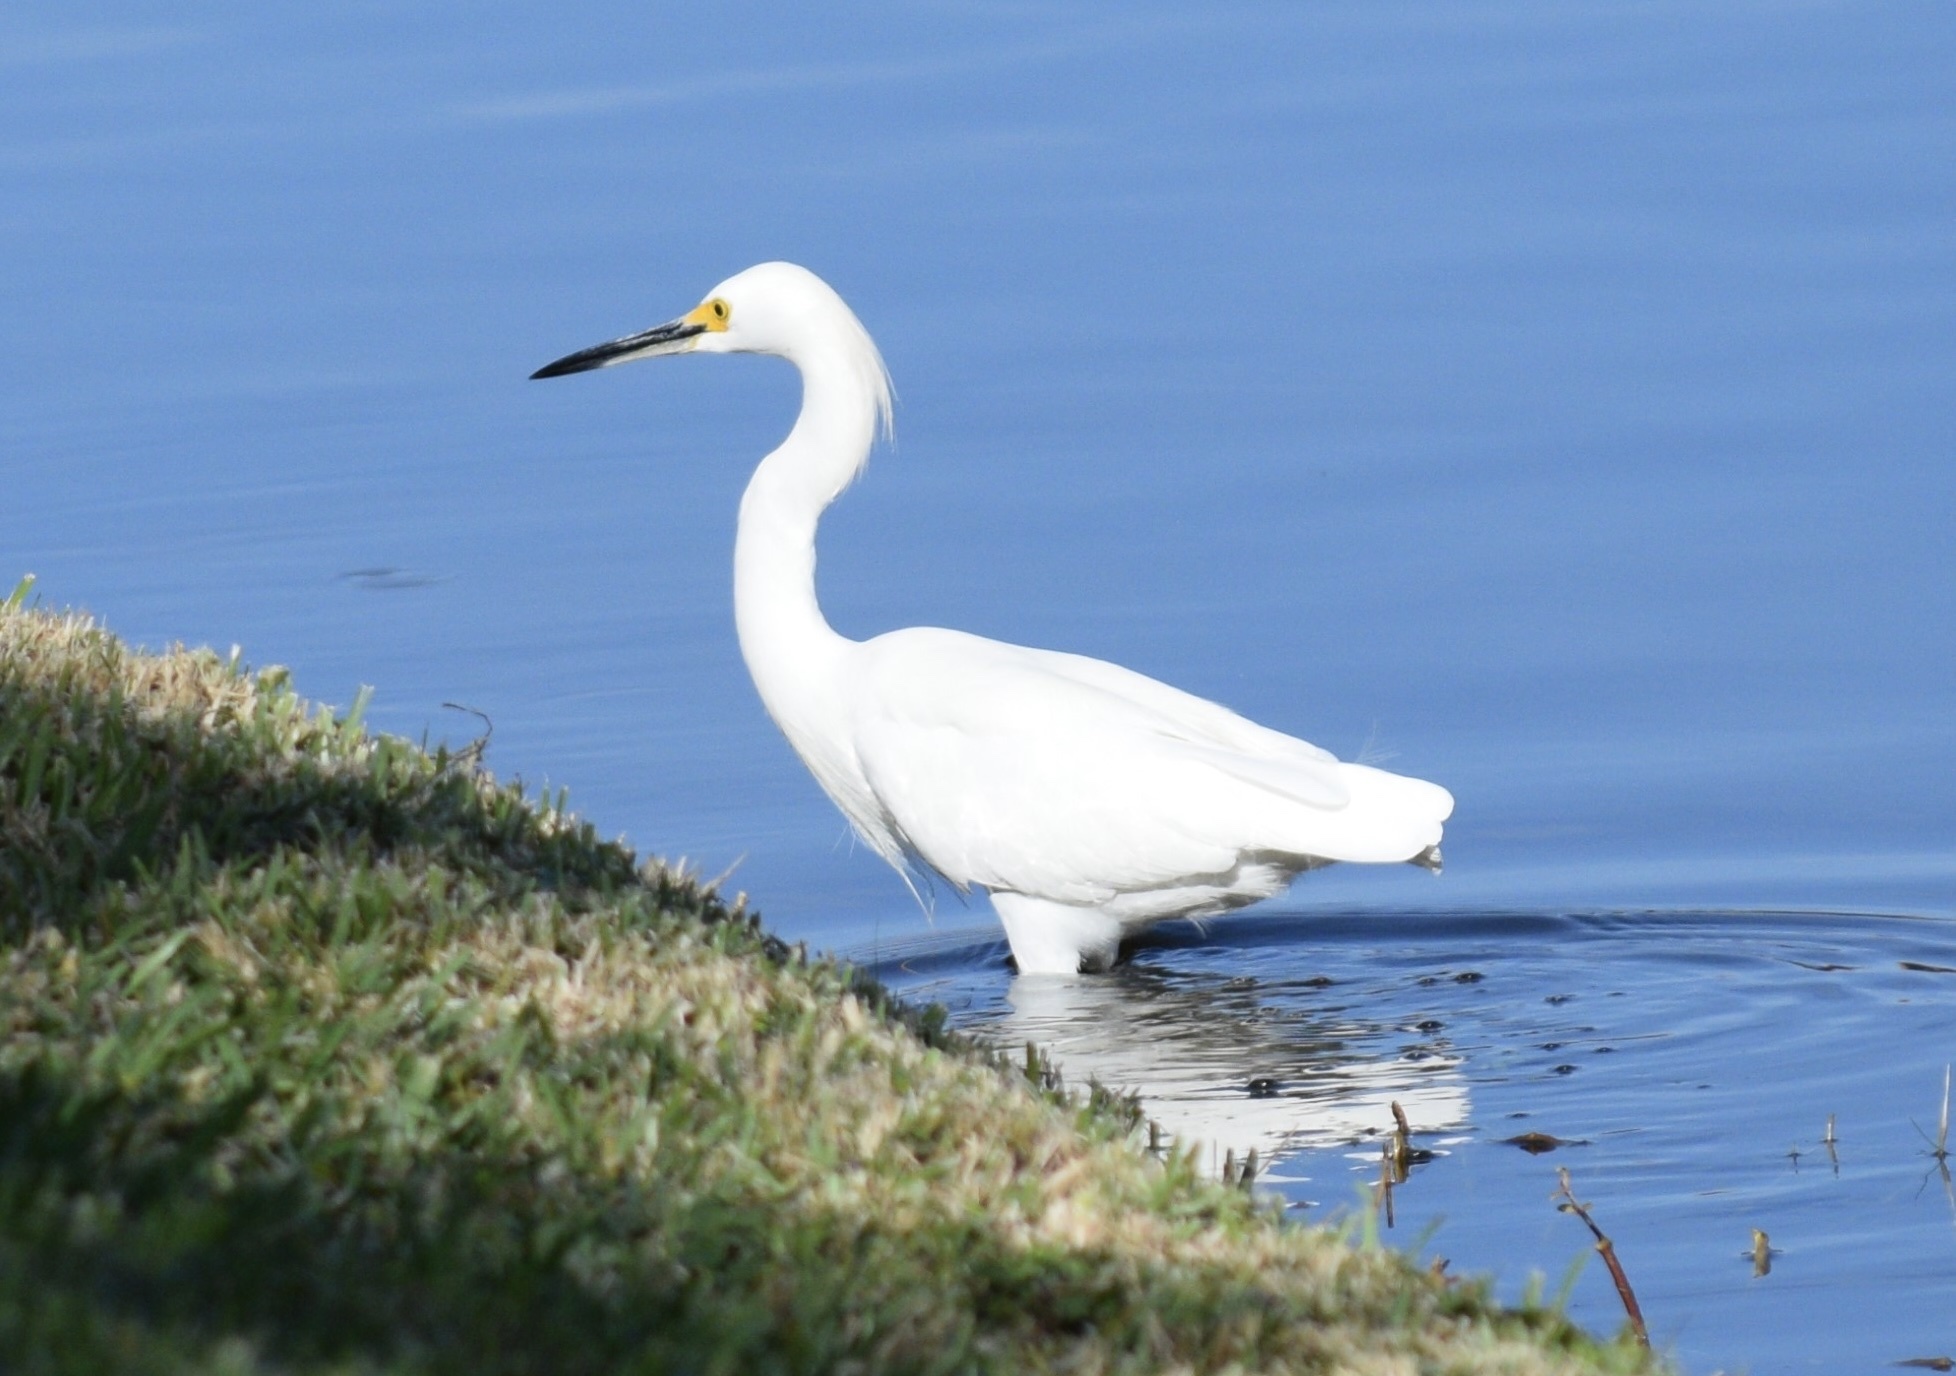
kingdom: Animalia
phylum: Chordata
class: Aves
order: Pelecaniformes
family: Ardeidae
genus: Egretta
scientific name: Egretta thula
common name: Snowy egret
